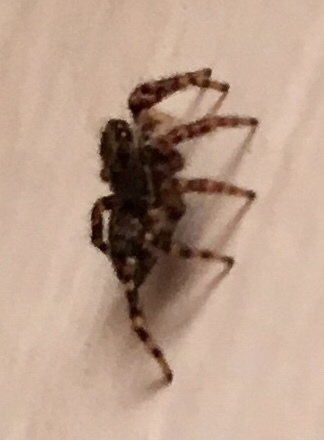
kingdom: Animalia
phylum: Arthropoda
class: Arachnida
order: Araneae
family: Salticidae
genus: Pseudeuophrys
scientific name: Pseudeuophrys erratica
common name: Jumping spider
